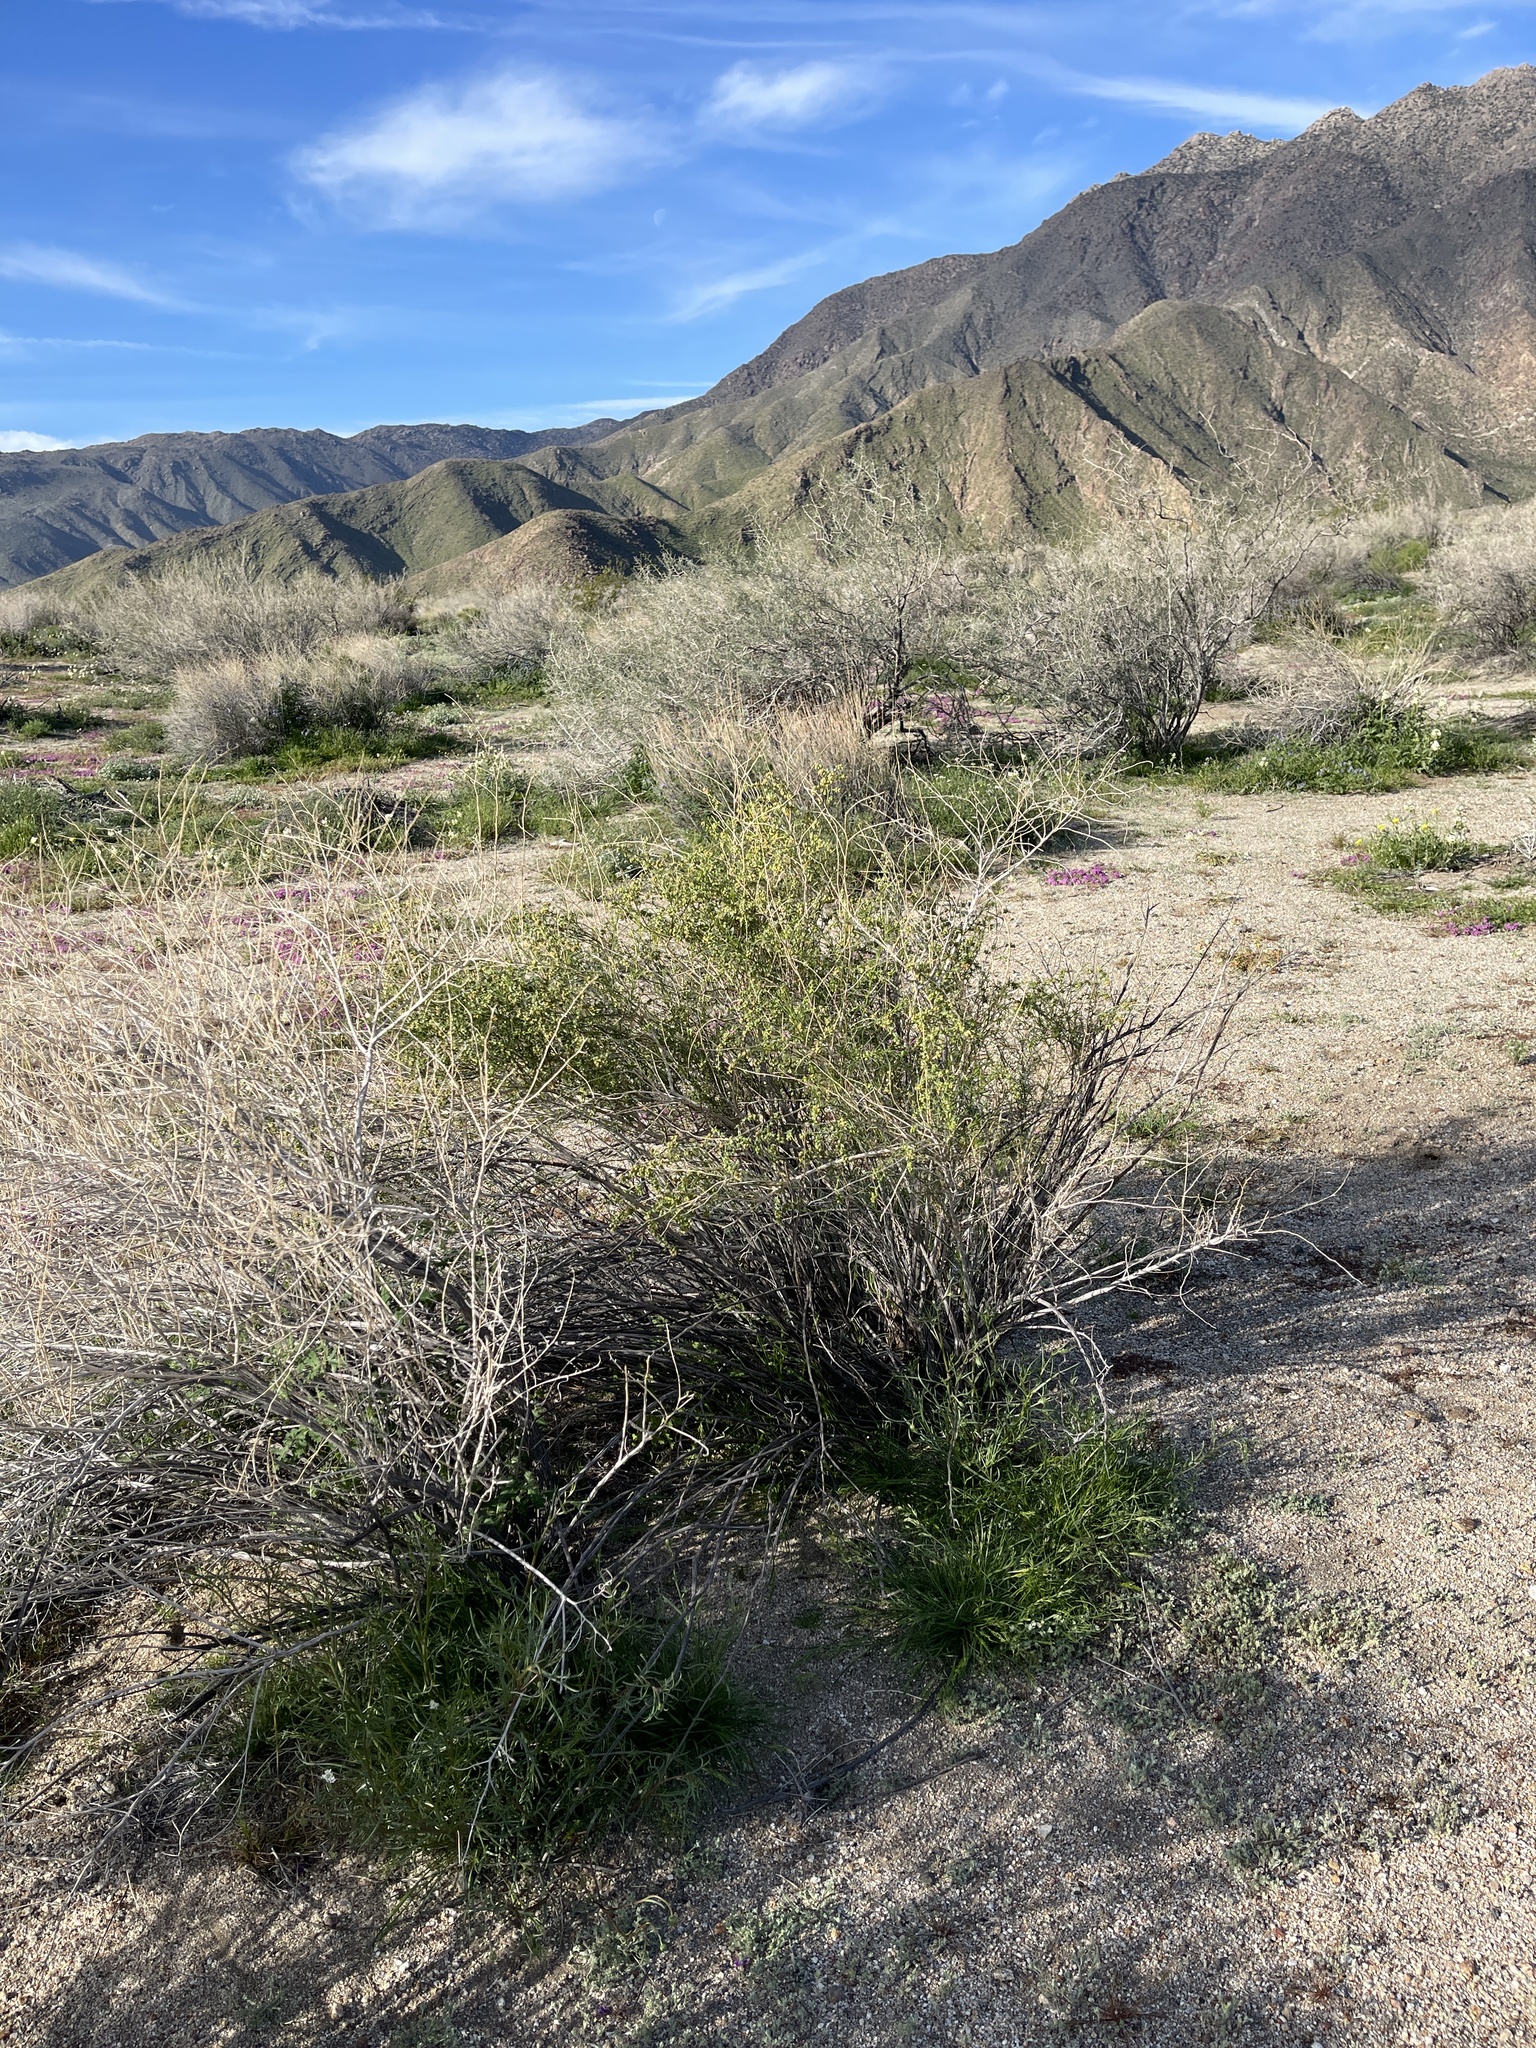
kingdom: Plantae
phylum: Tracheophyta
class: Magnoliopsida
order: Asterales
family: Asteraceae
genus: Ambrosia
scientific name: Ambrosia salsola
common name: Burrobrush
